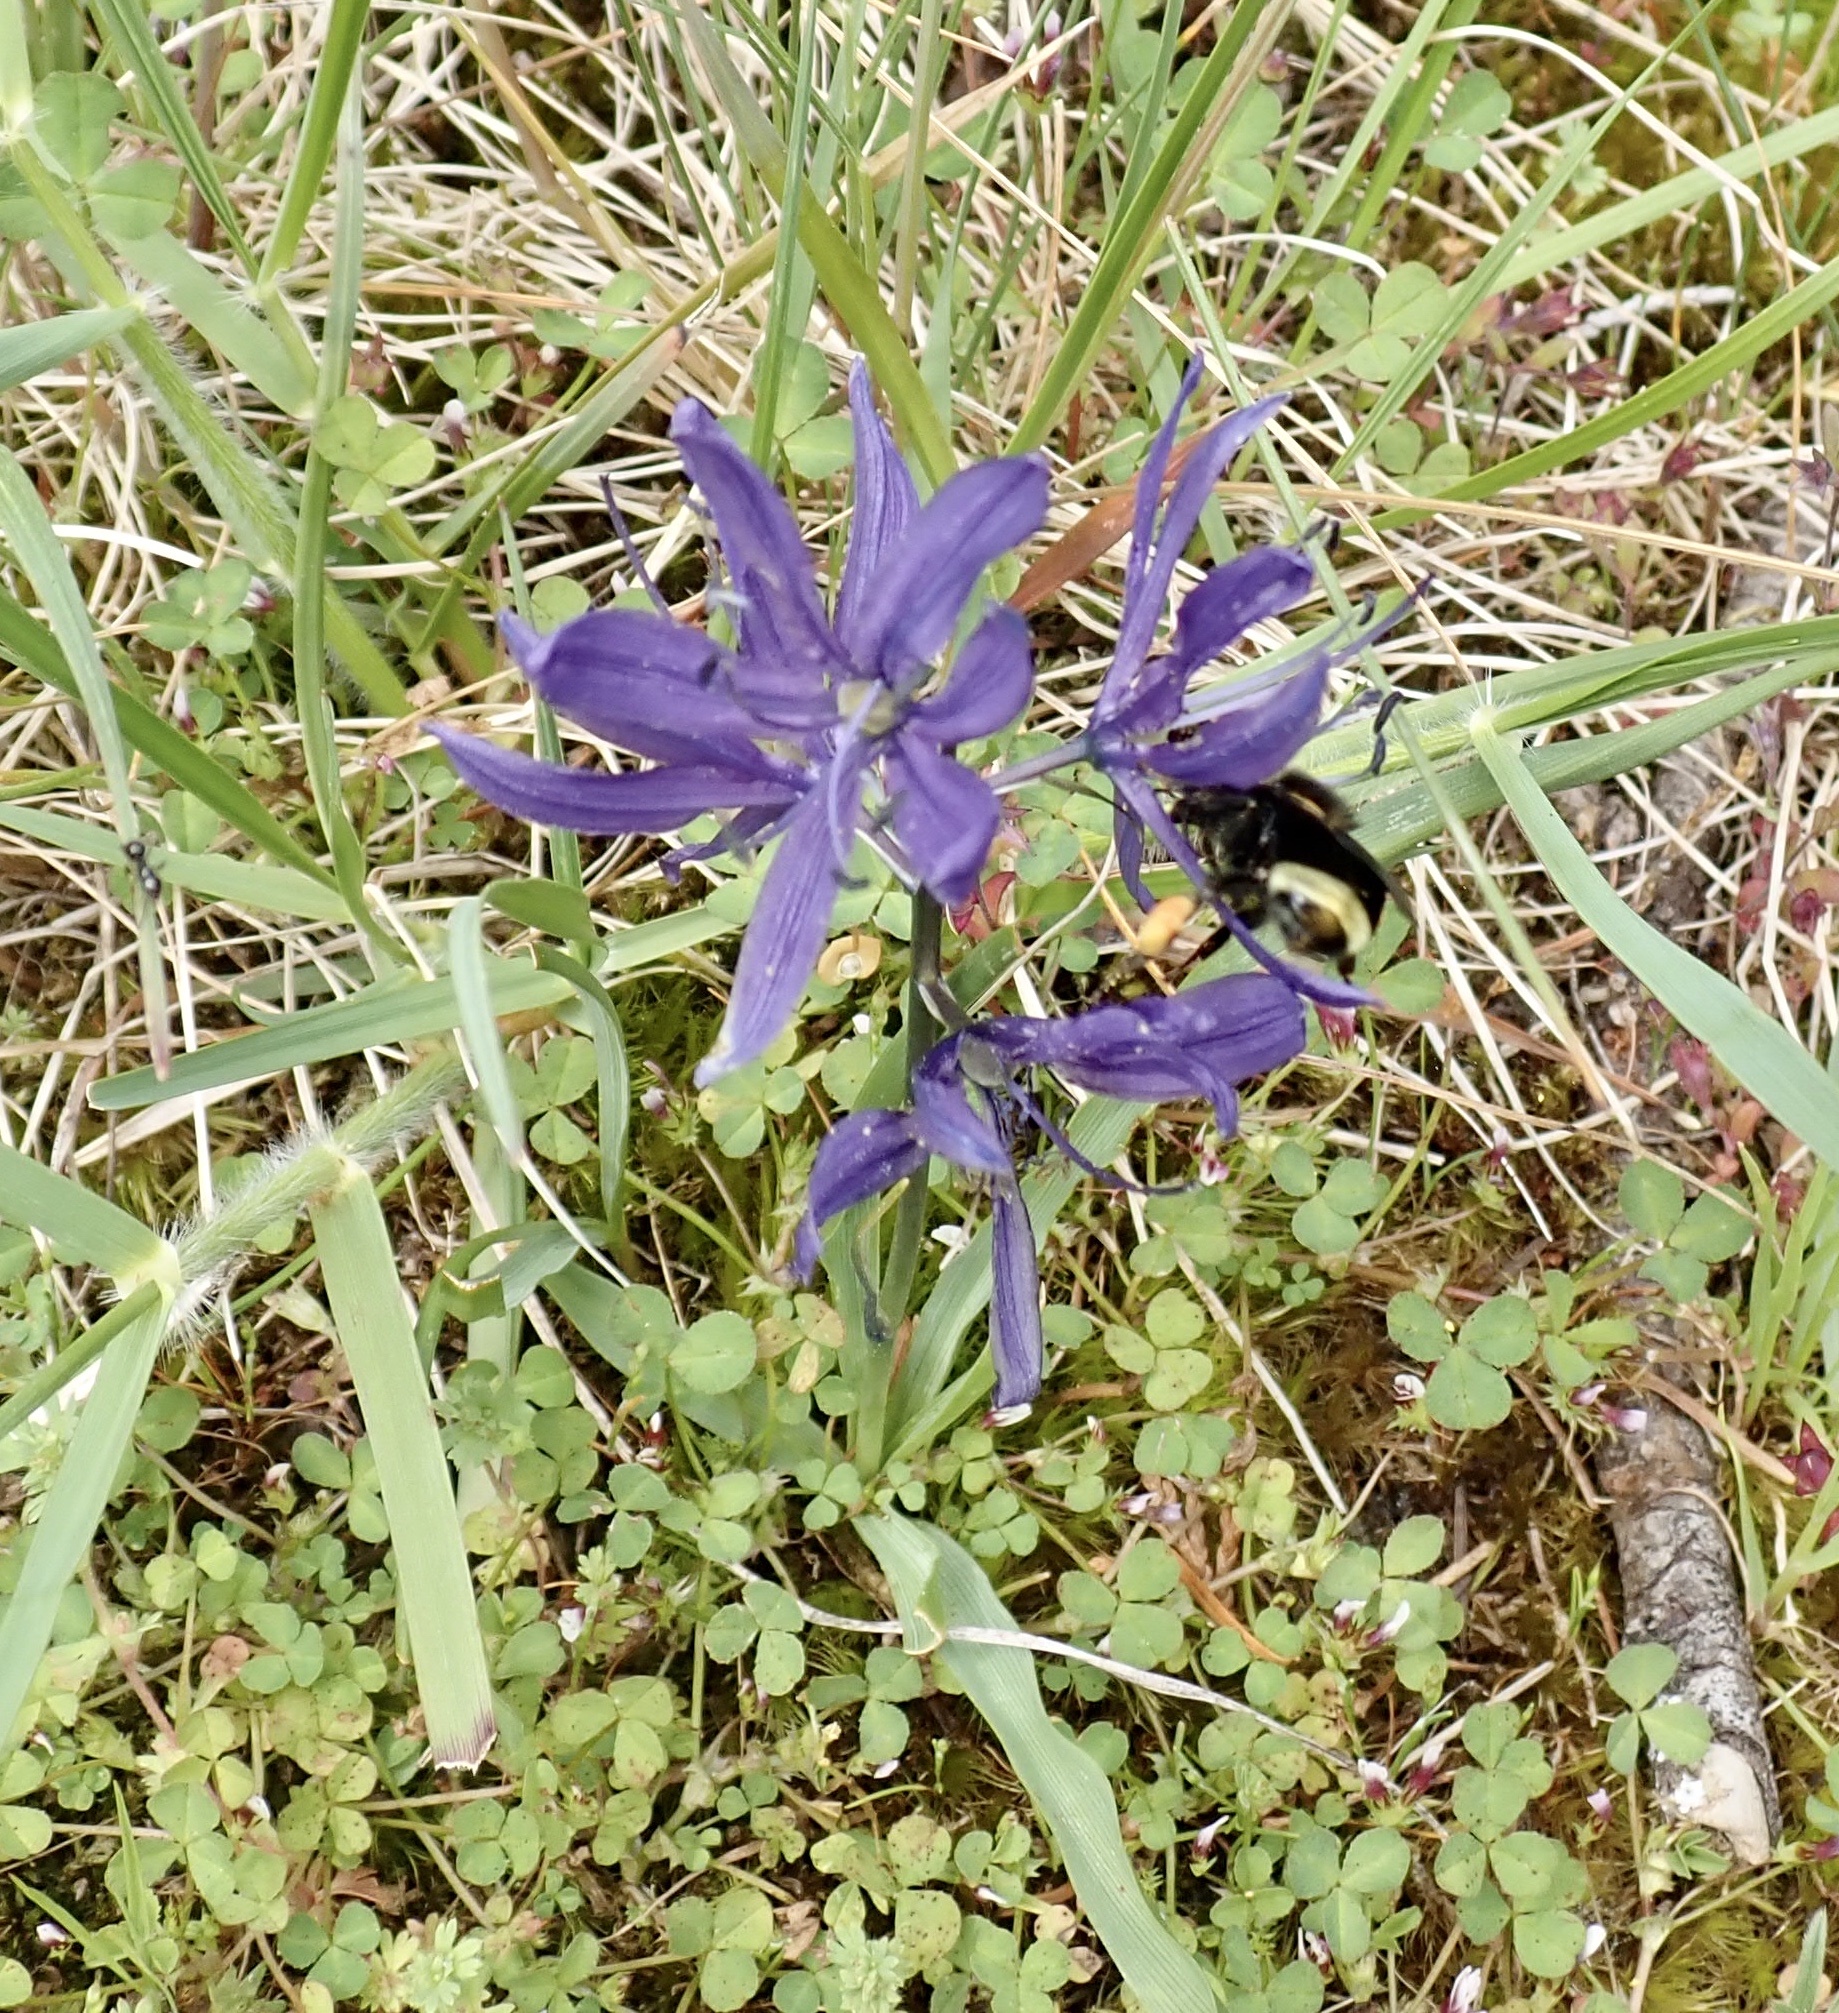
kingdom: Plantae
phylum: Tracheophyta
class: Liliopsida
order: Asparagales
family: Asparagaceae
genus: Camassia
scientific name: Camassia quamash
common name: Common camas
